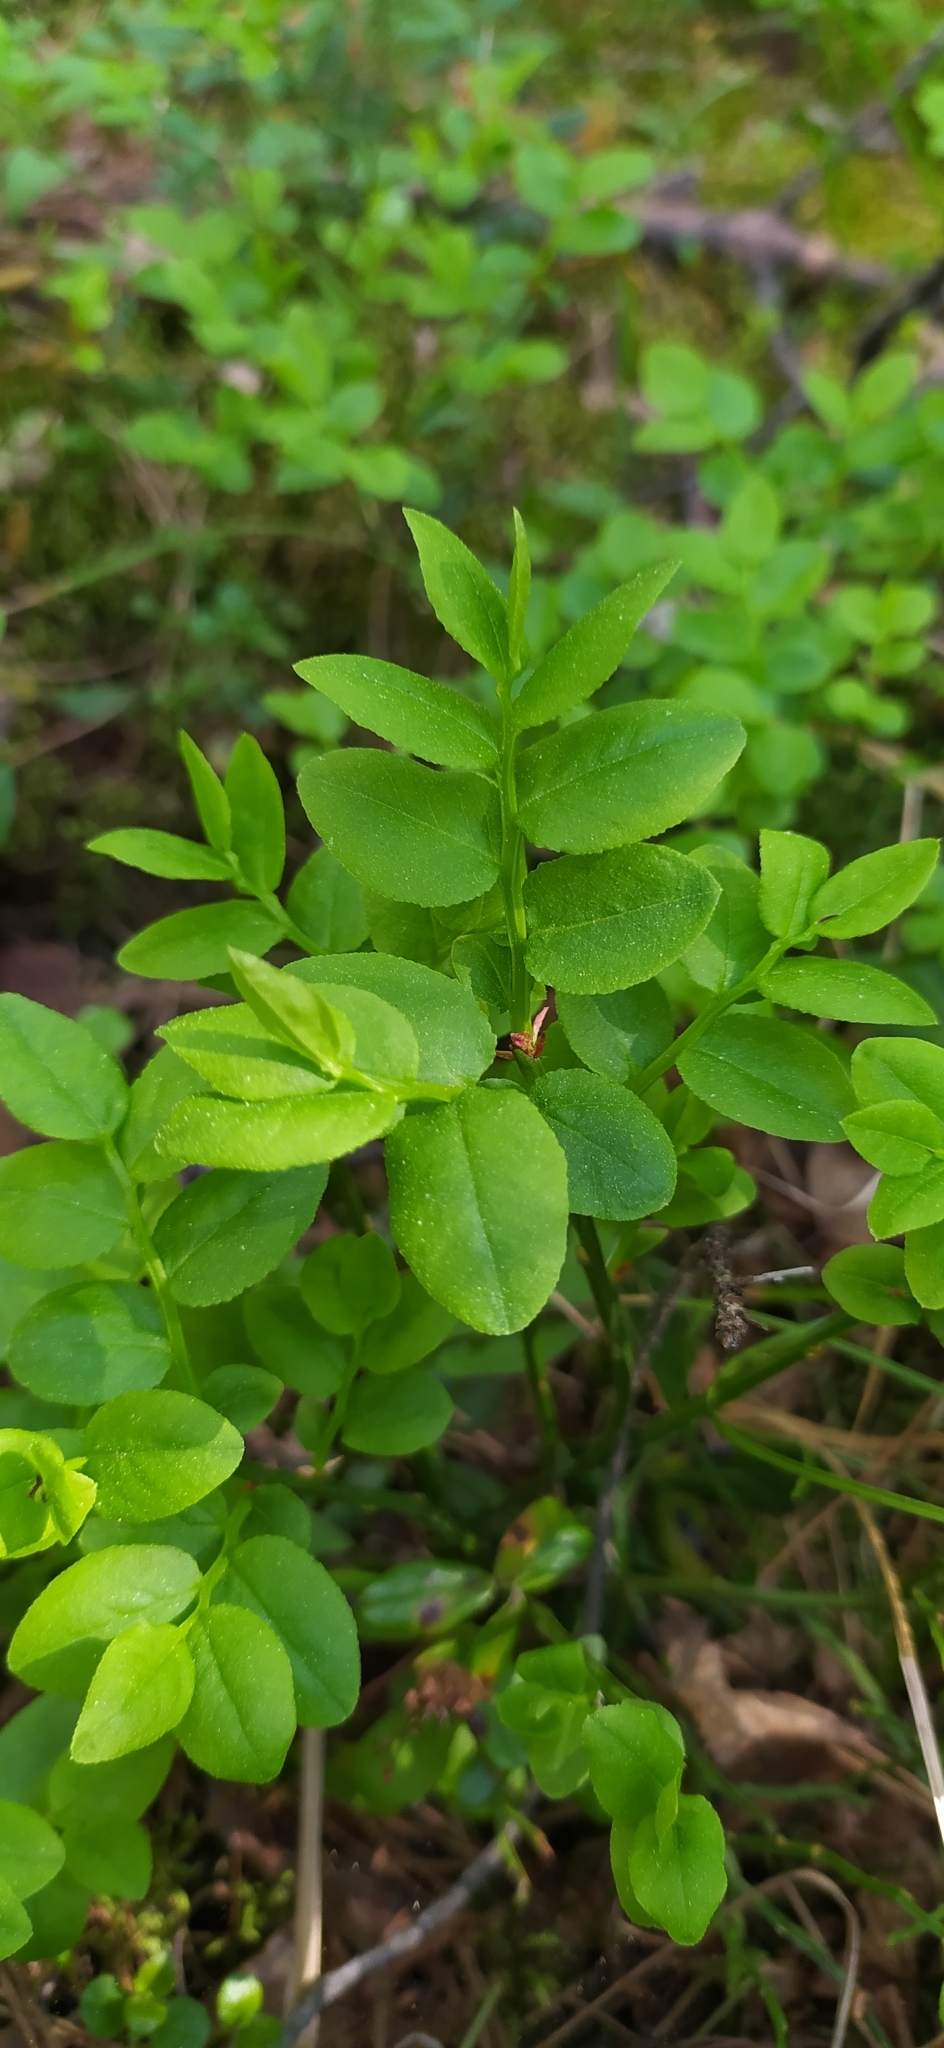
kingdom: Plantae
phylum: Tracheophyta
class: Magnoliopsida
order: Ericales
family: Ericaceae
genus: Vaccinium
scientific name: Vaccinium myrtillus
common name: Bilberry
